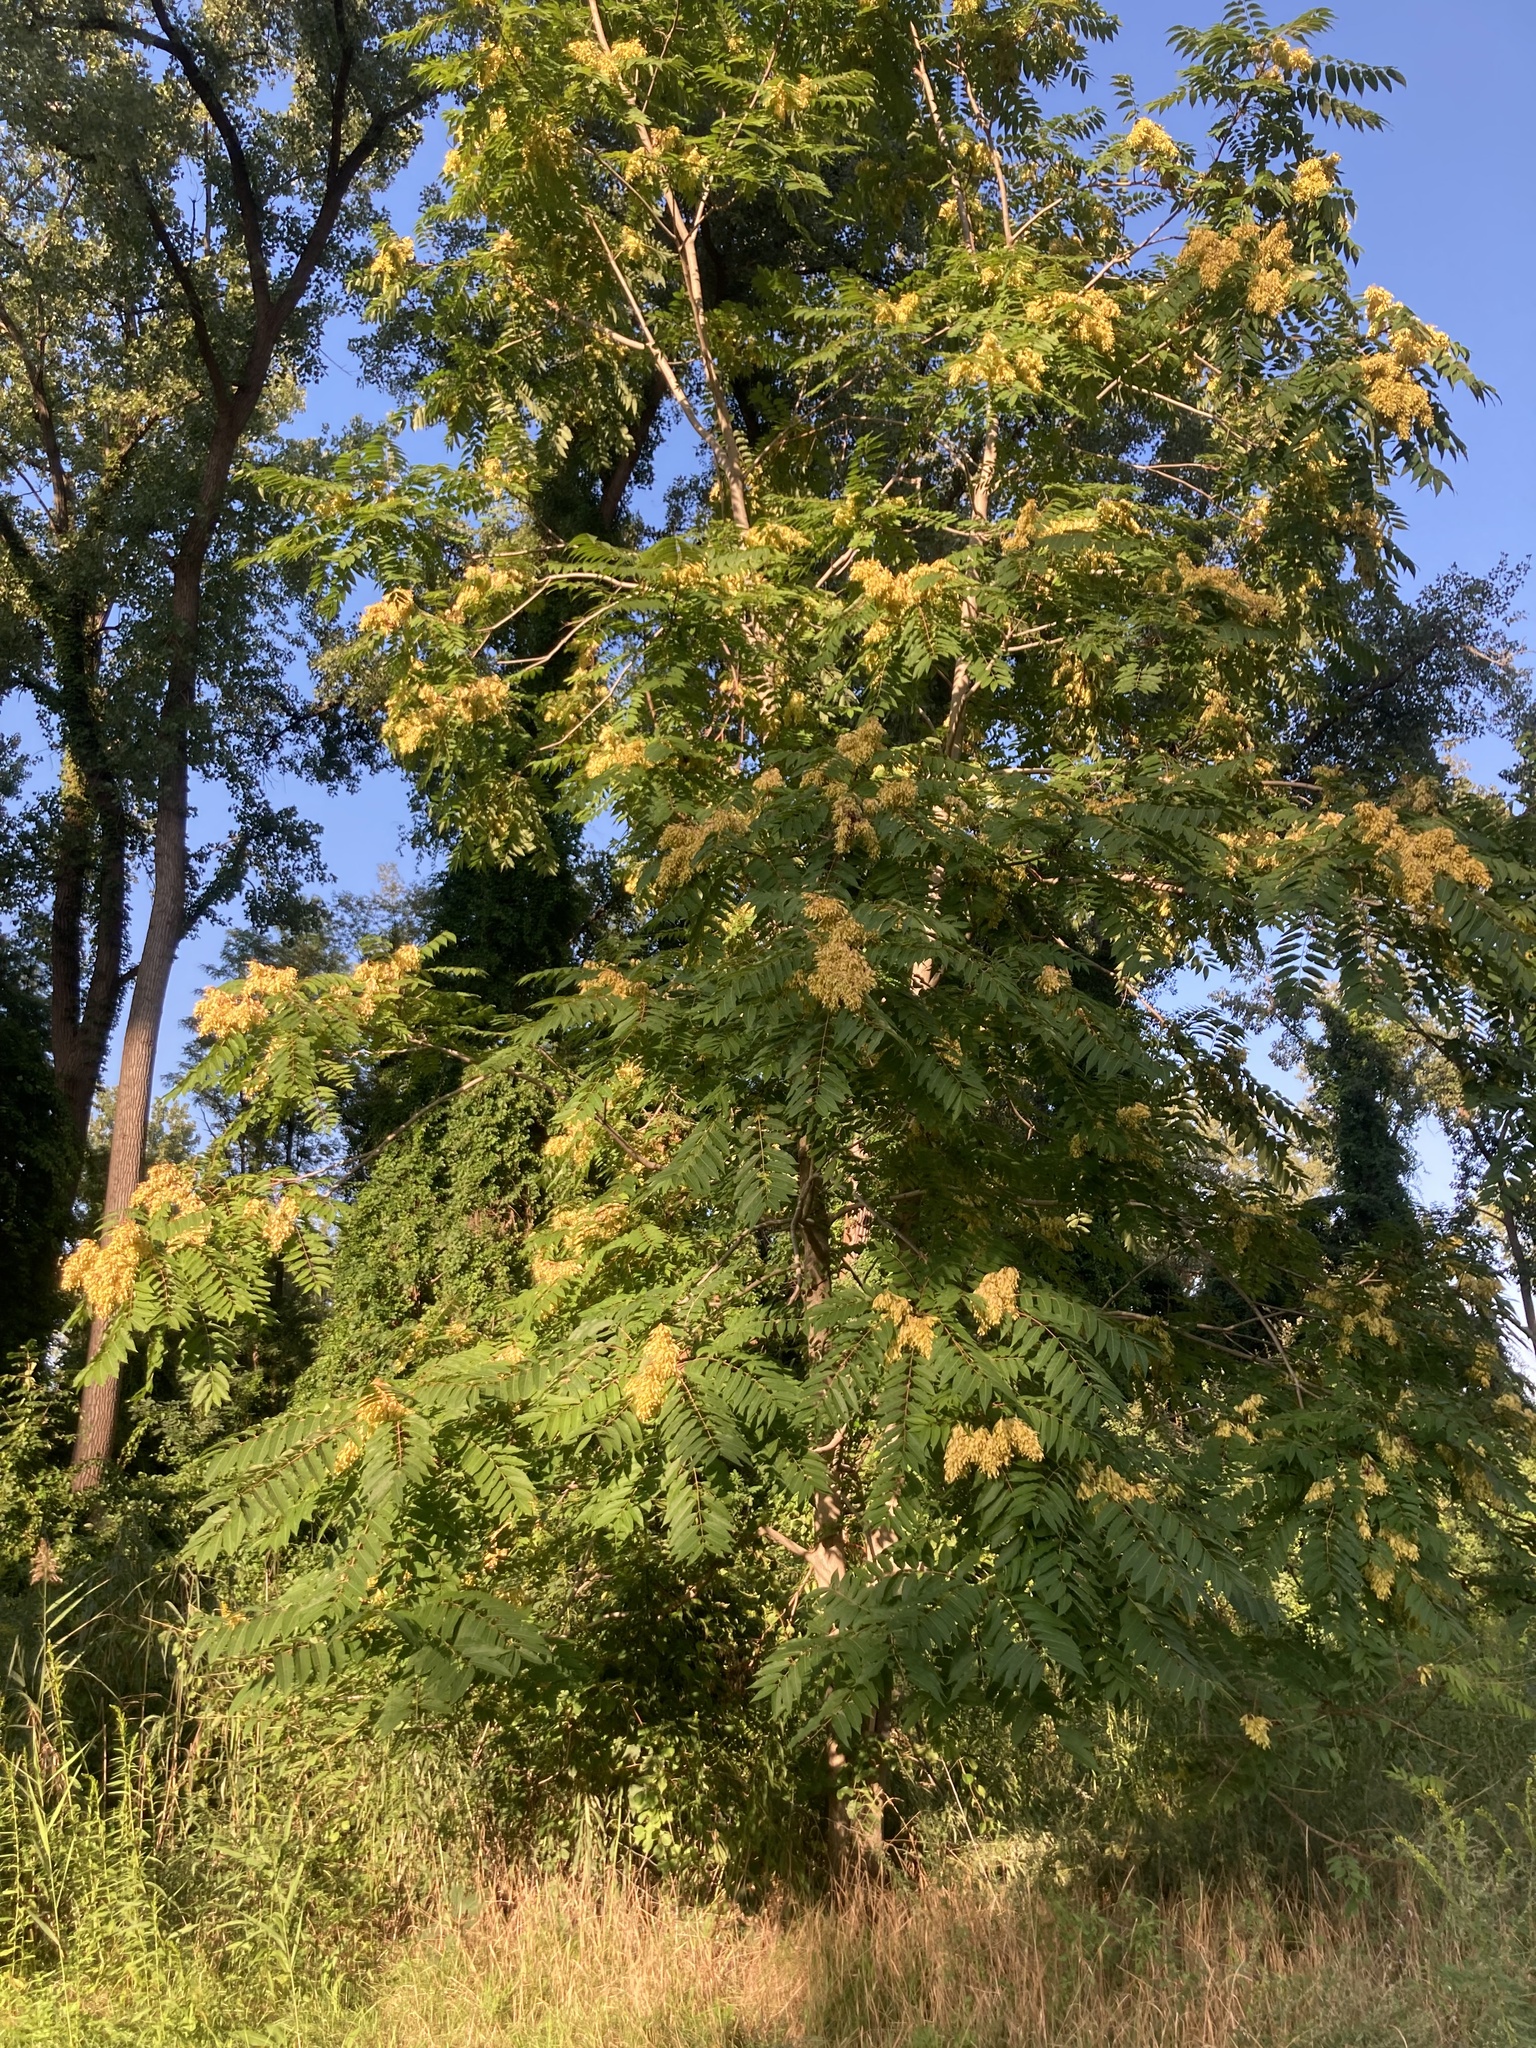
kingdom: Plantae
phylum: Tracheophyta
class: Magnoliopsida
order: Sapindales
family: Simaroubaceae
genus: Ailanthus
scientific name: Ailanthus altissima
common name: Tree-of-heaven
